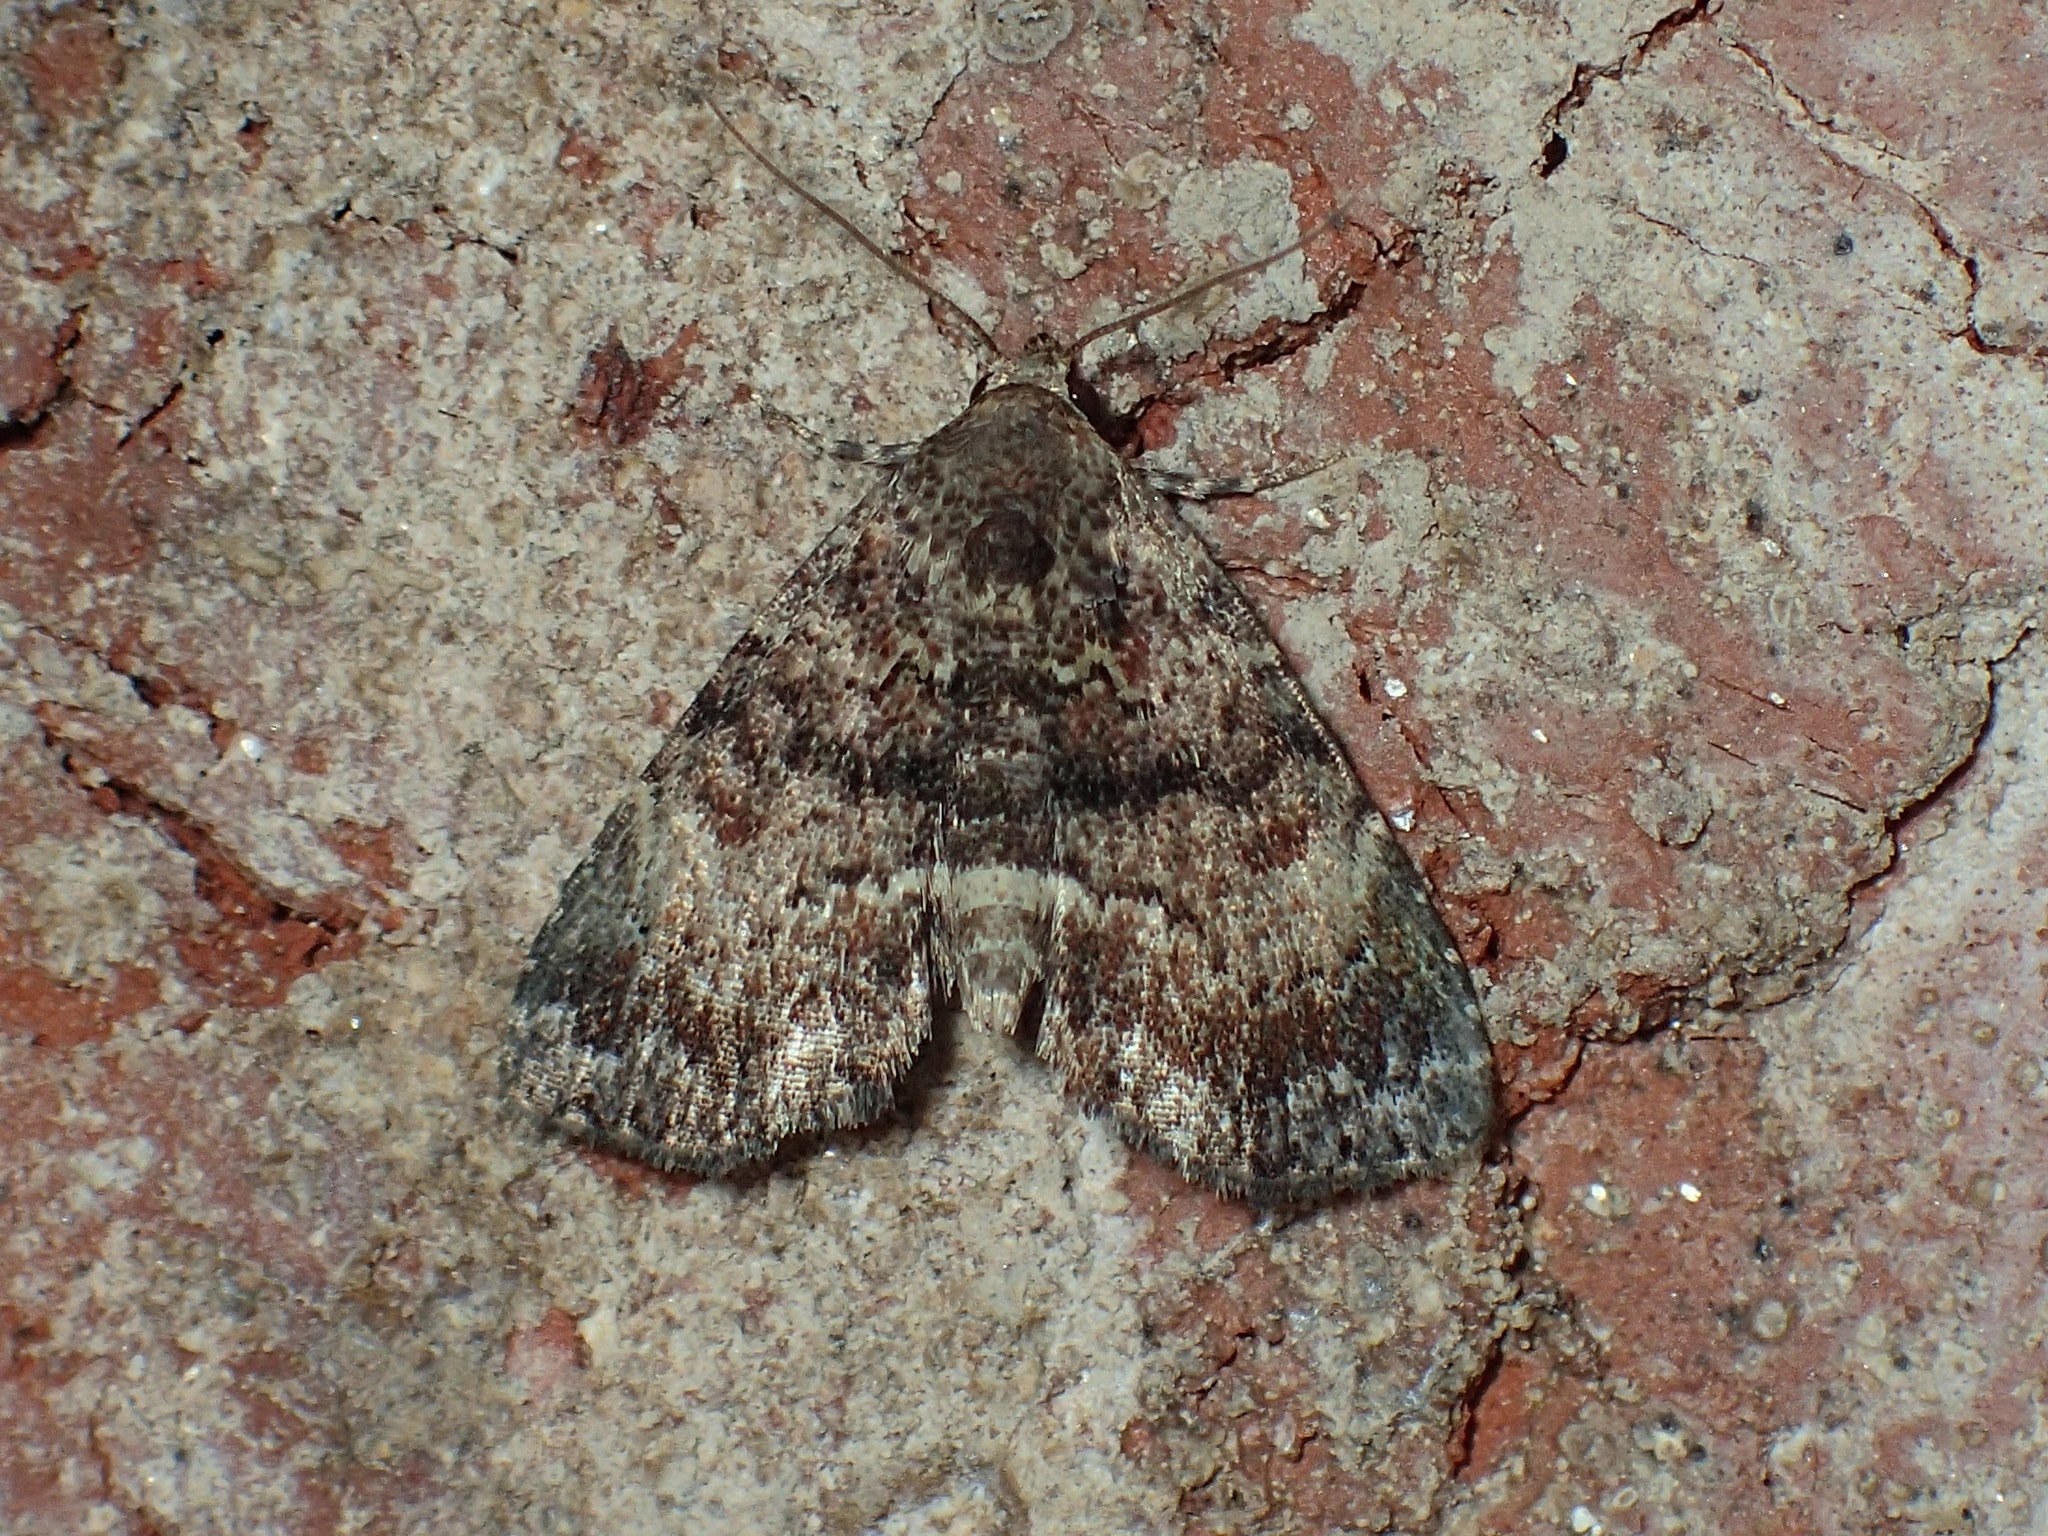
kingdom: Animalia
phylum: Arthropoda
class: Insecta
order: Lepidoptera
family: Erebidae
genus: Metalectra
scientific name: Metalectra richardsi
